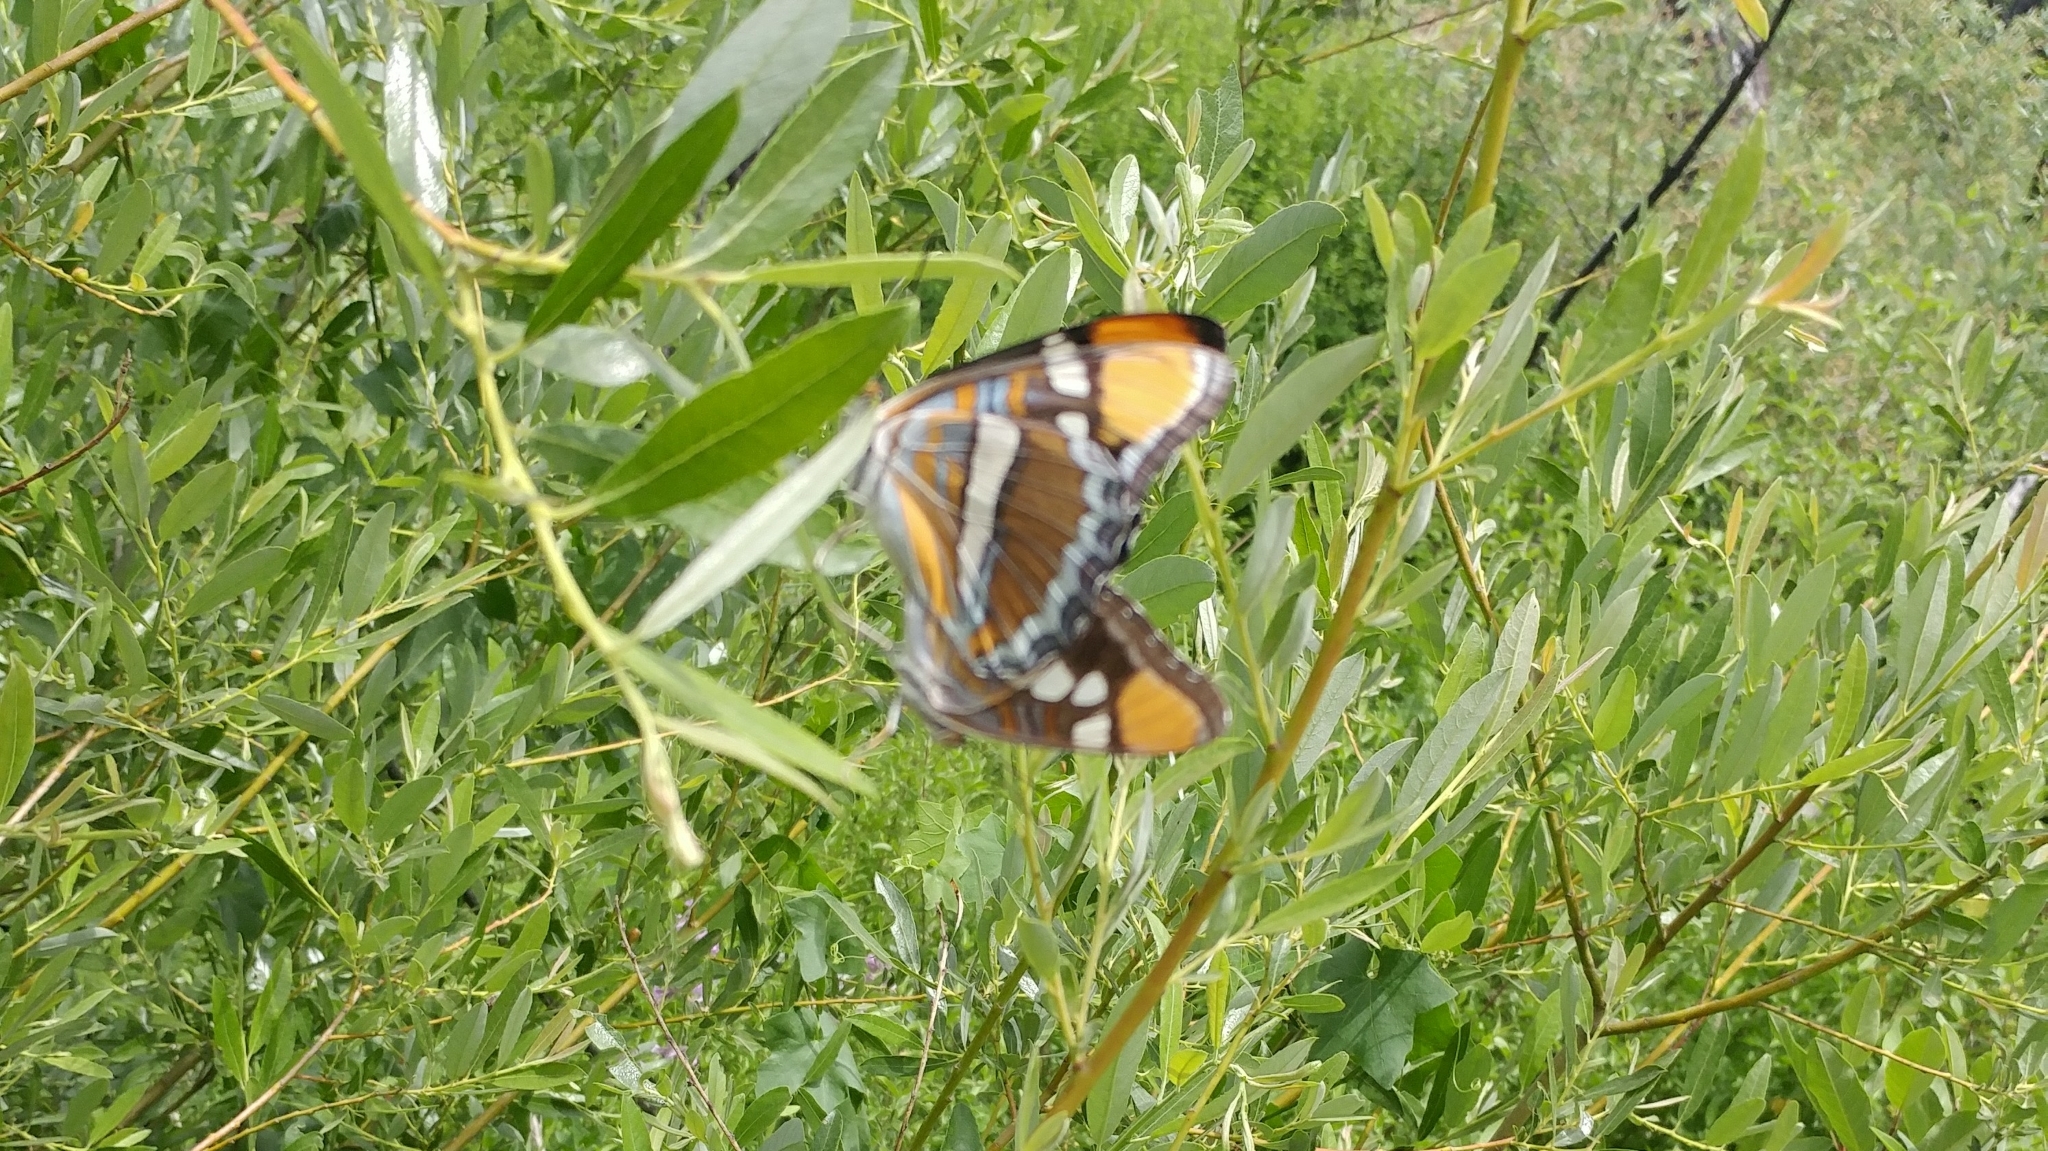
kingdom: Animalia
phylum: Arthropoda
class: Insecta
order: Lepidoptera
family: Nymphalidae
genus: Limenitis
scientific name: Limenitis bredowii
